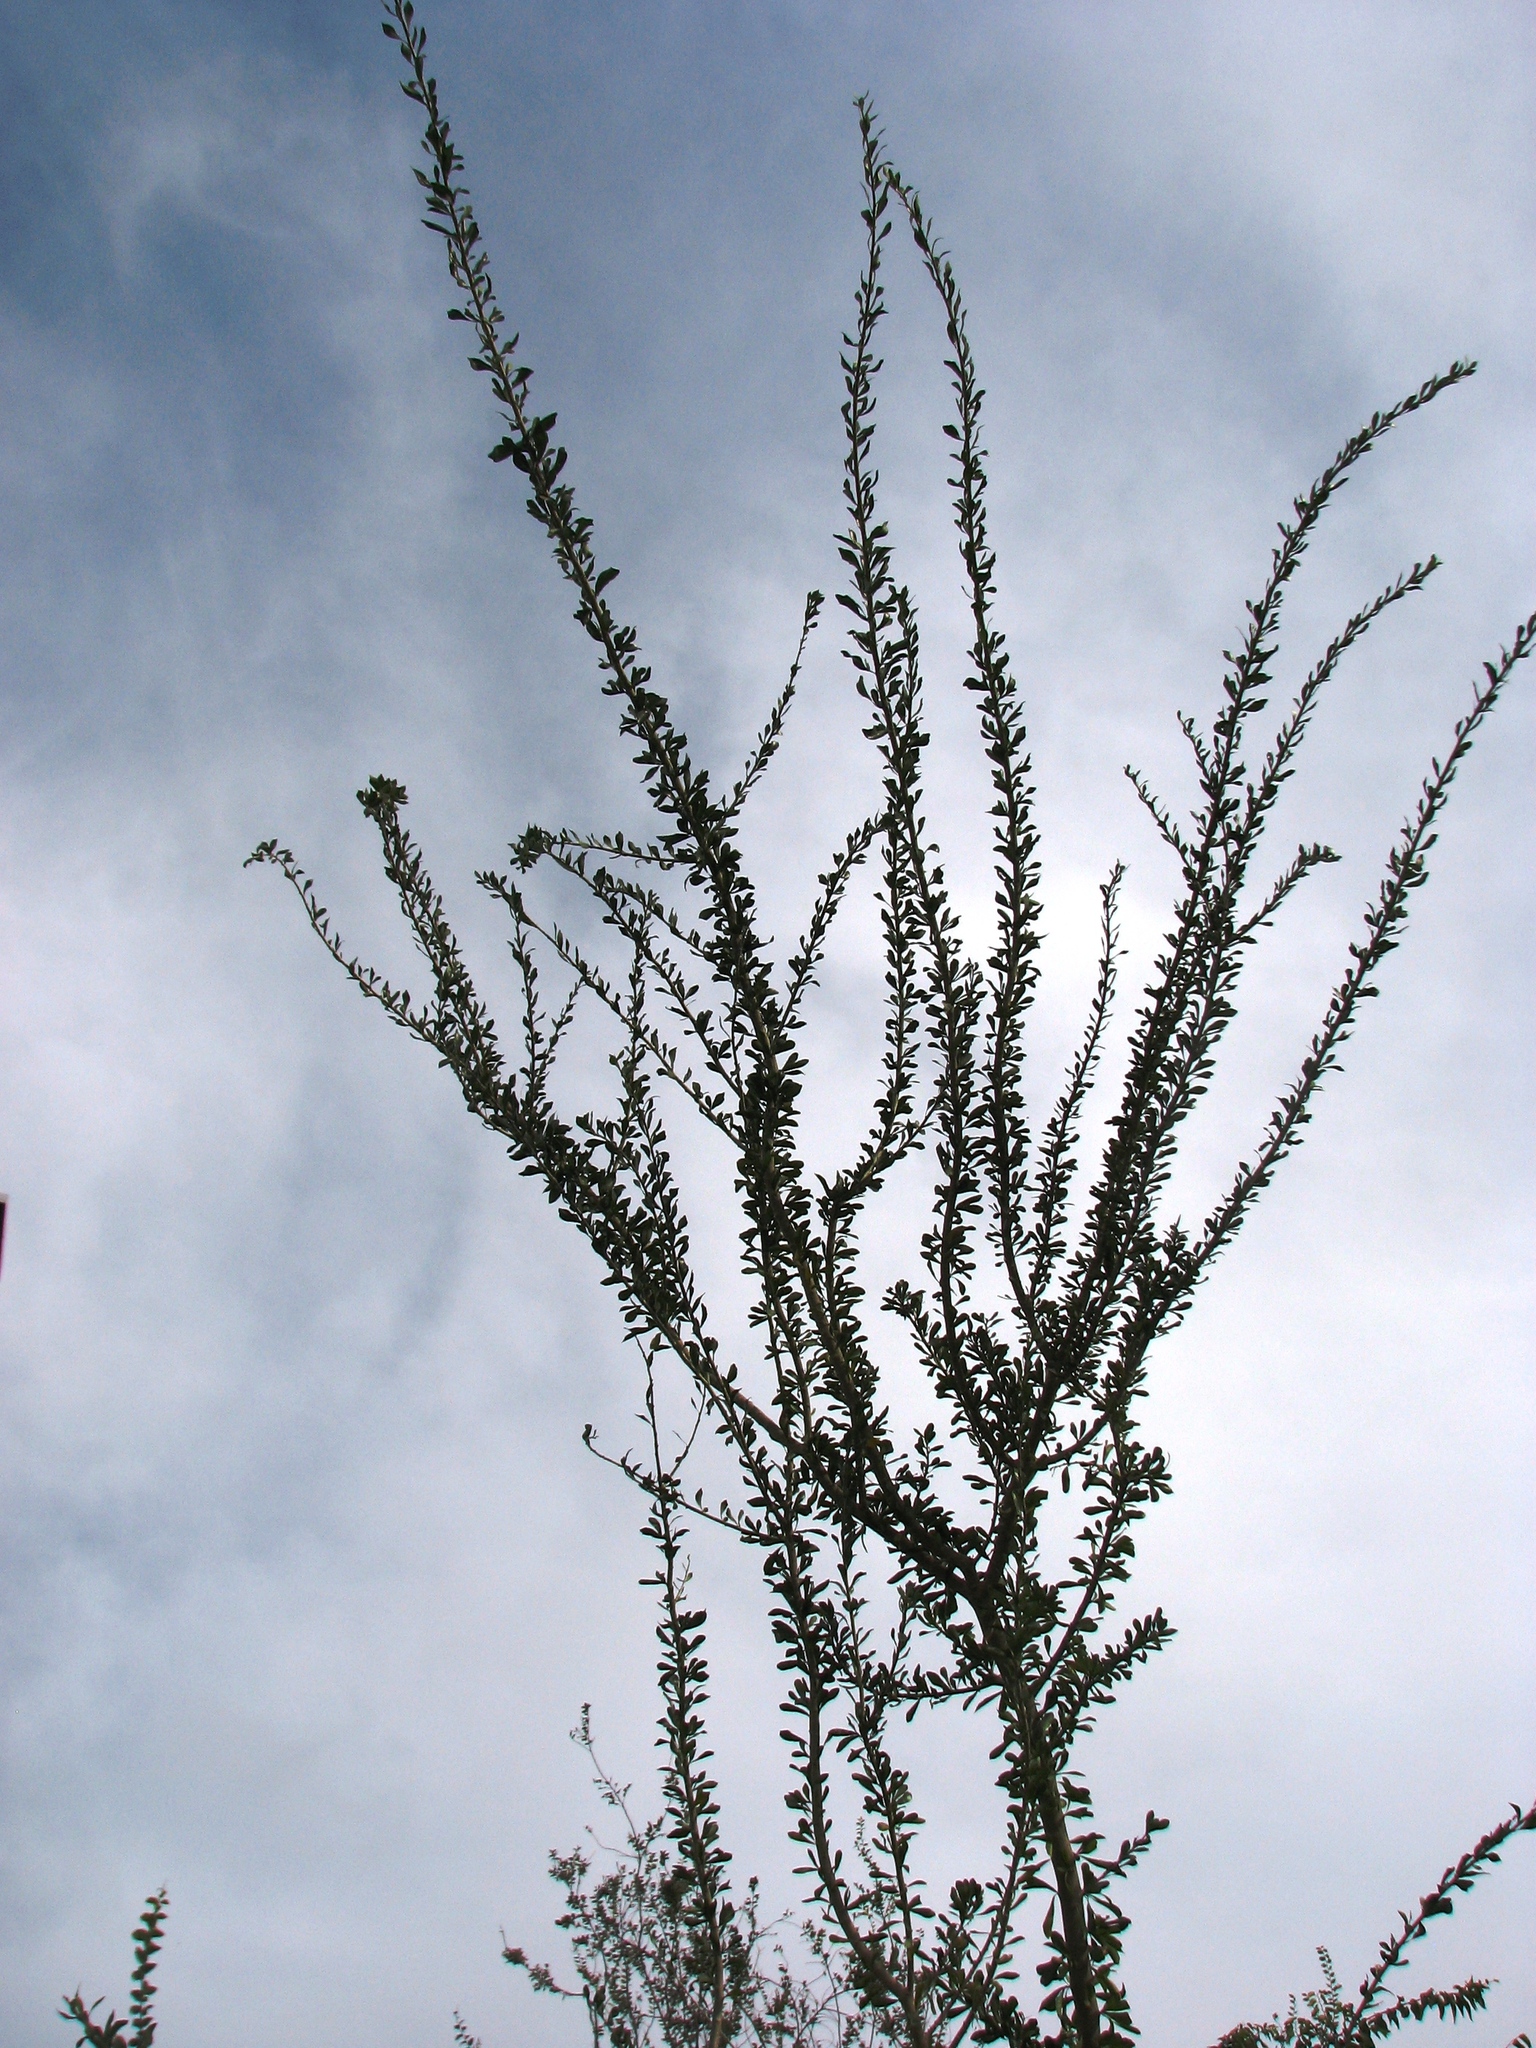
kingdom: Plantae
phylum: Tracheophyta
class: Magnoliopsida
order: Malpighiales
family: Euphorbiaceae
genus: Adelia
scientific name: Adelia vaseyi
